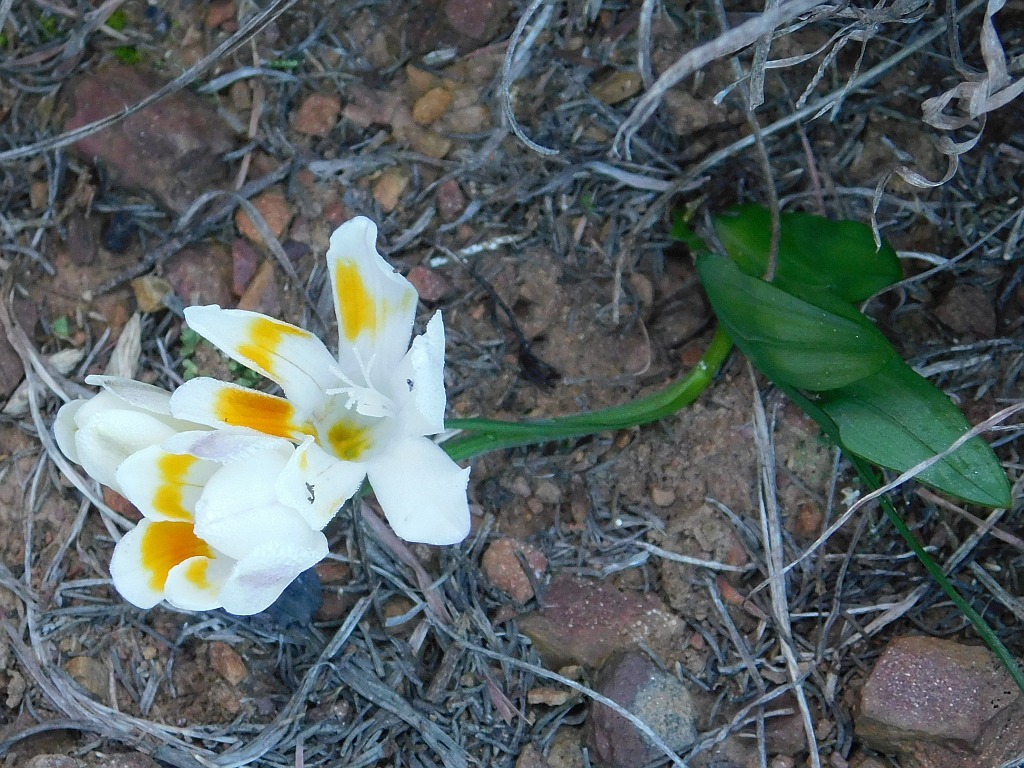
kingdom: Plantae
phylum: Tracheophyta
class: Liliopsida
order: Asparagales
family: Iridaceae
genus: Freesia
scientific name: Freesia caryophyllacea
